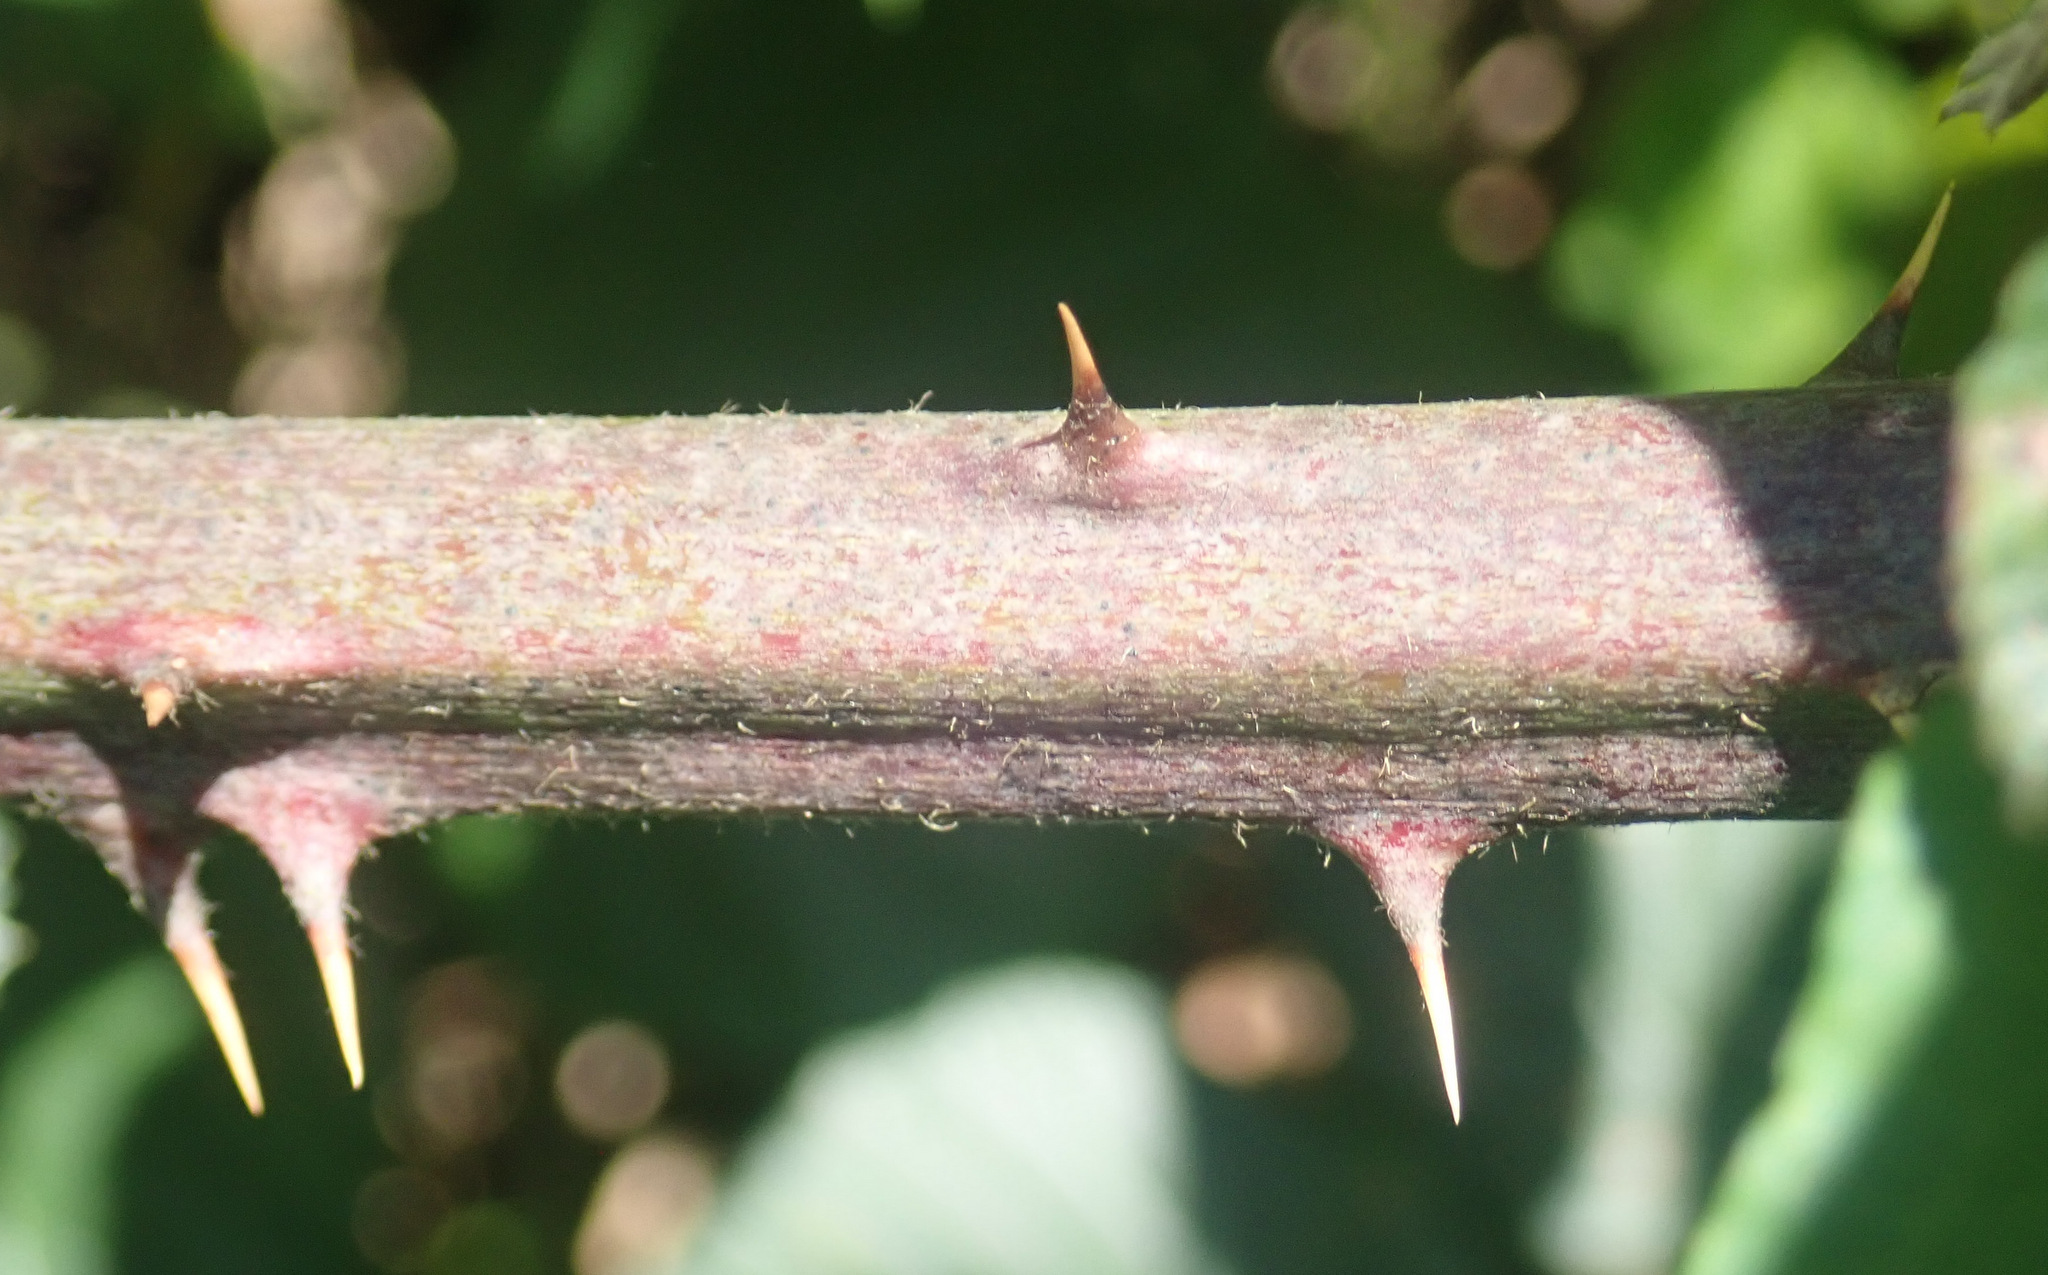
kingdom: Plantae
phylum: Tracheophyta
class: Magnoliopsida
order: Rosales
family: Rosaceae
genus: Rubus
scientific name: Rubus armeniacus
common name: Himalayan blackberry
